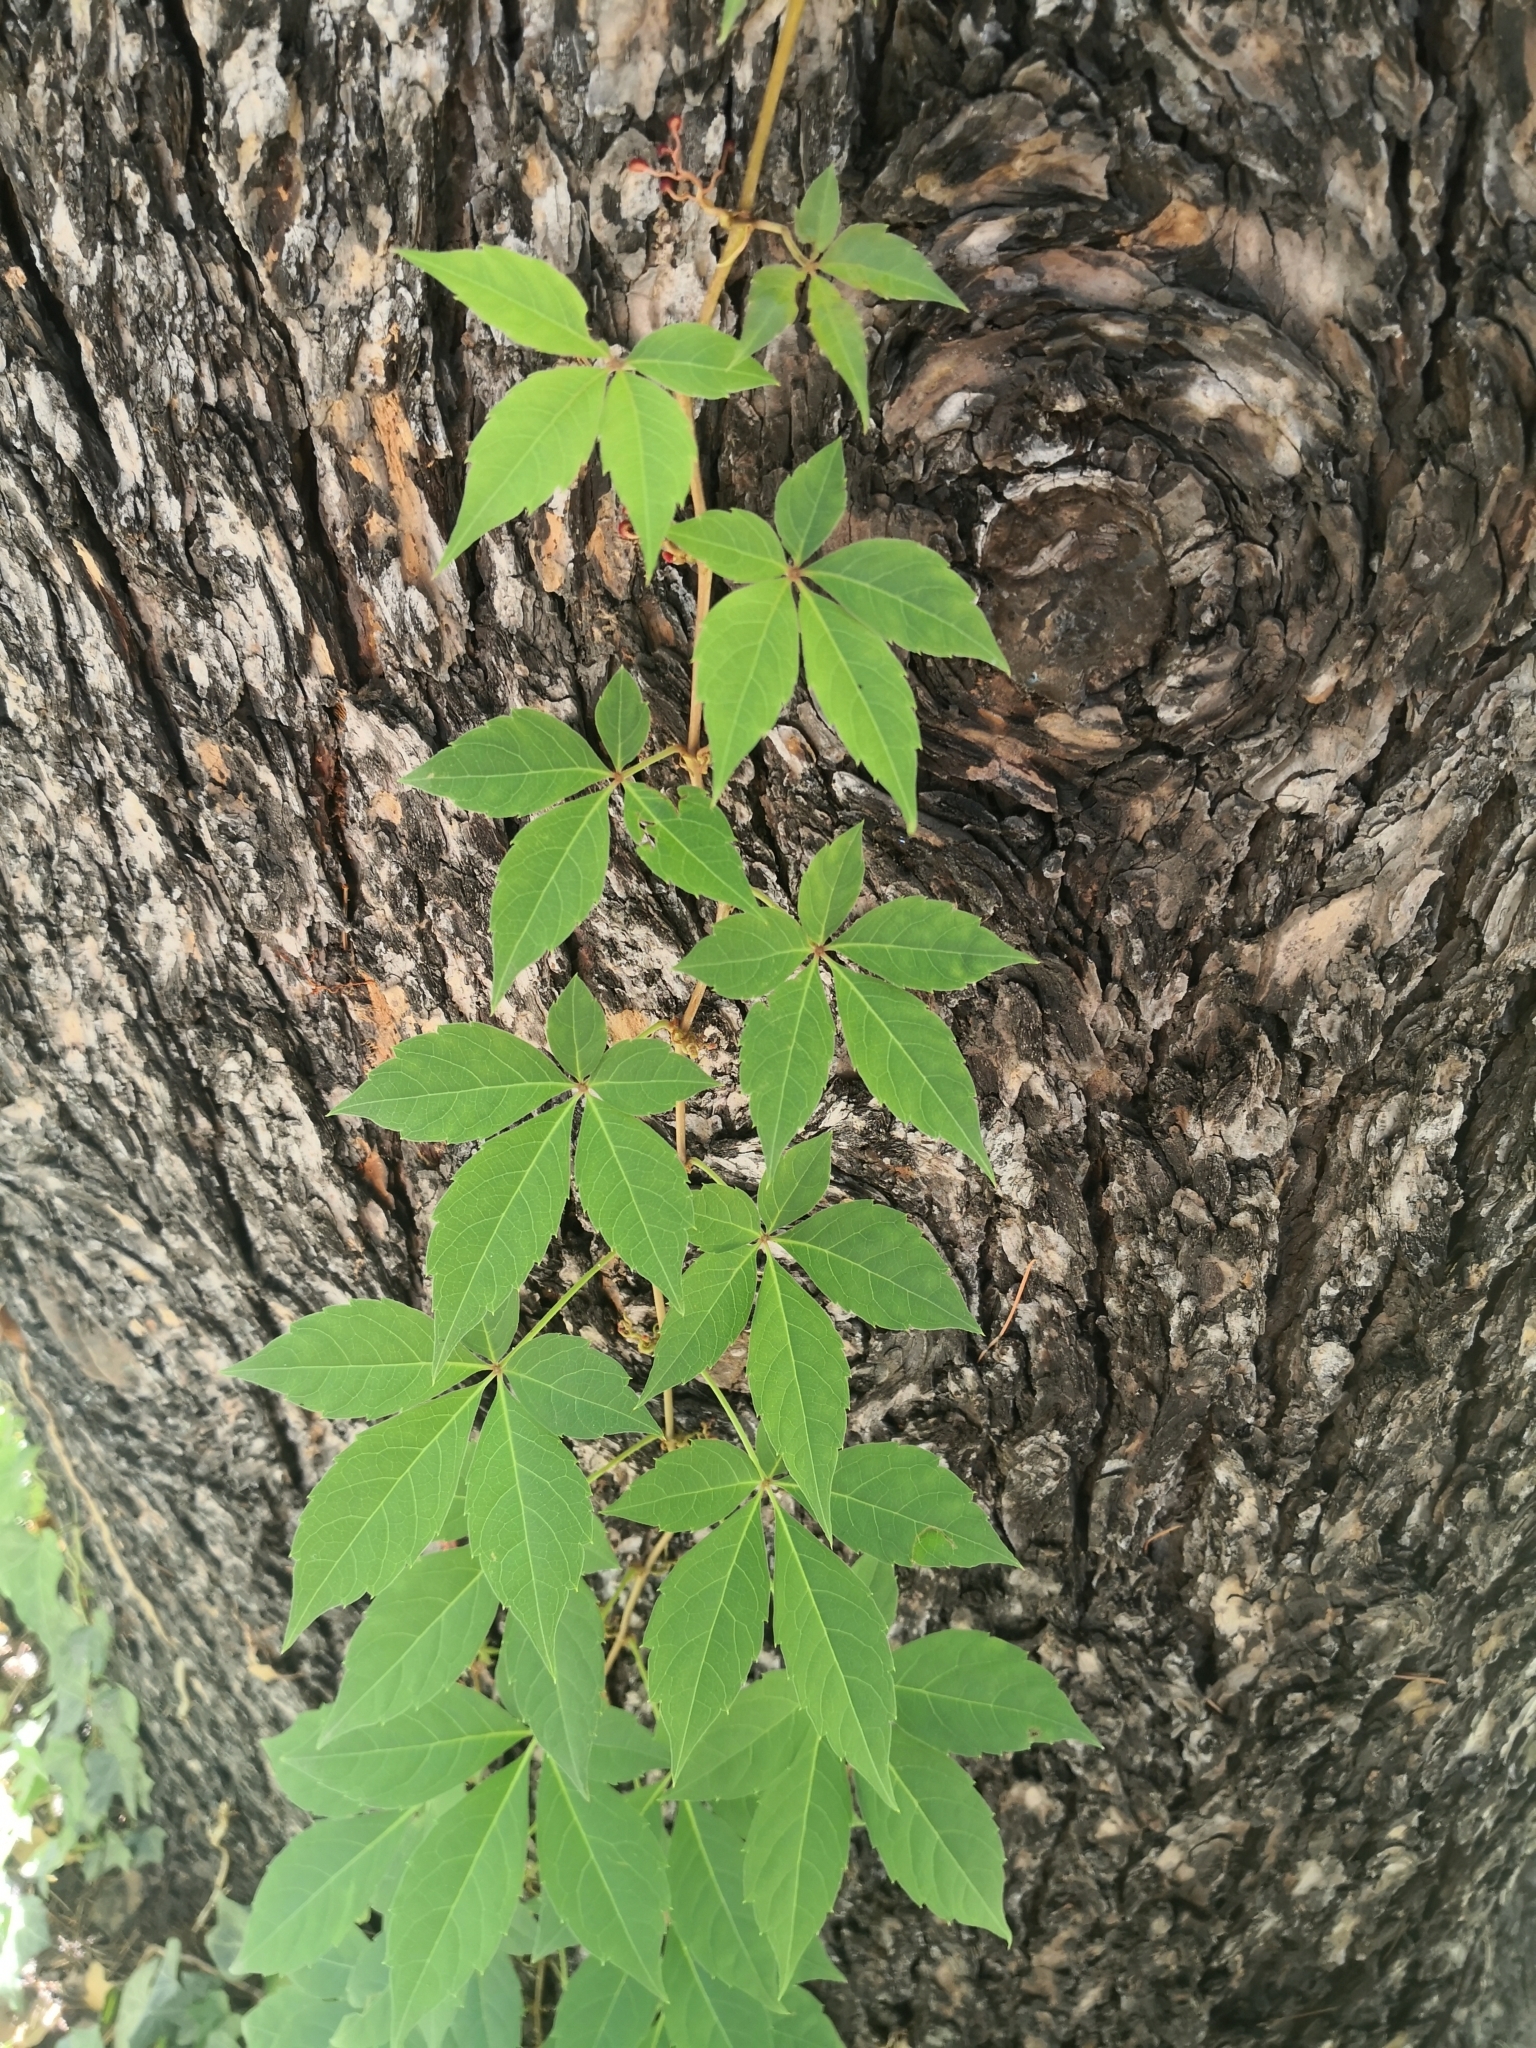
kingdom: Plantae
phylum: Tracheophyta
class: Magnoliopsida
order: Vitales
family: Vitaceae
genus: Parthenocissus
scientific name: Parthenocissus quinquefolia
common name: Virginia-creeper
